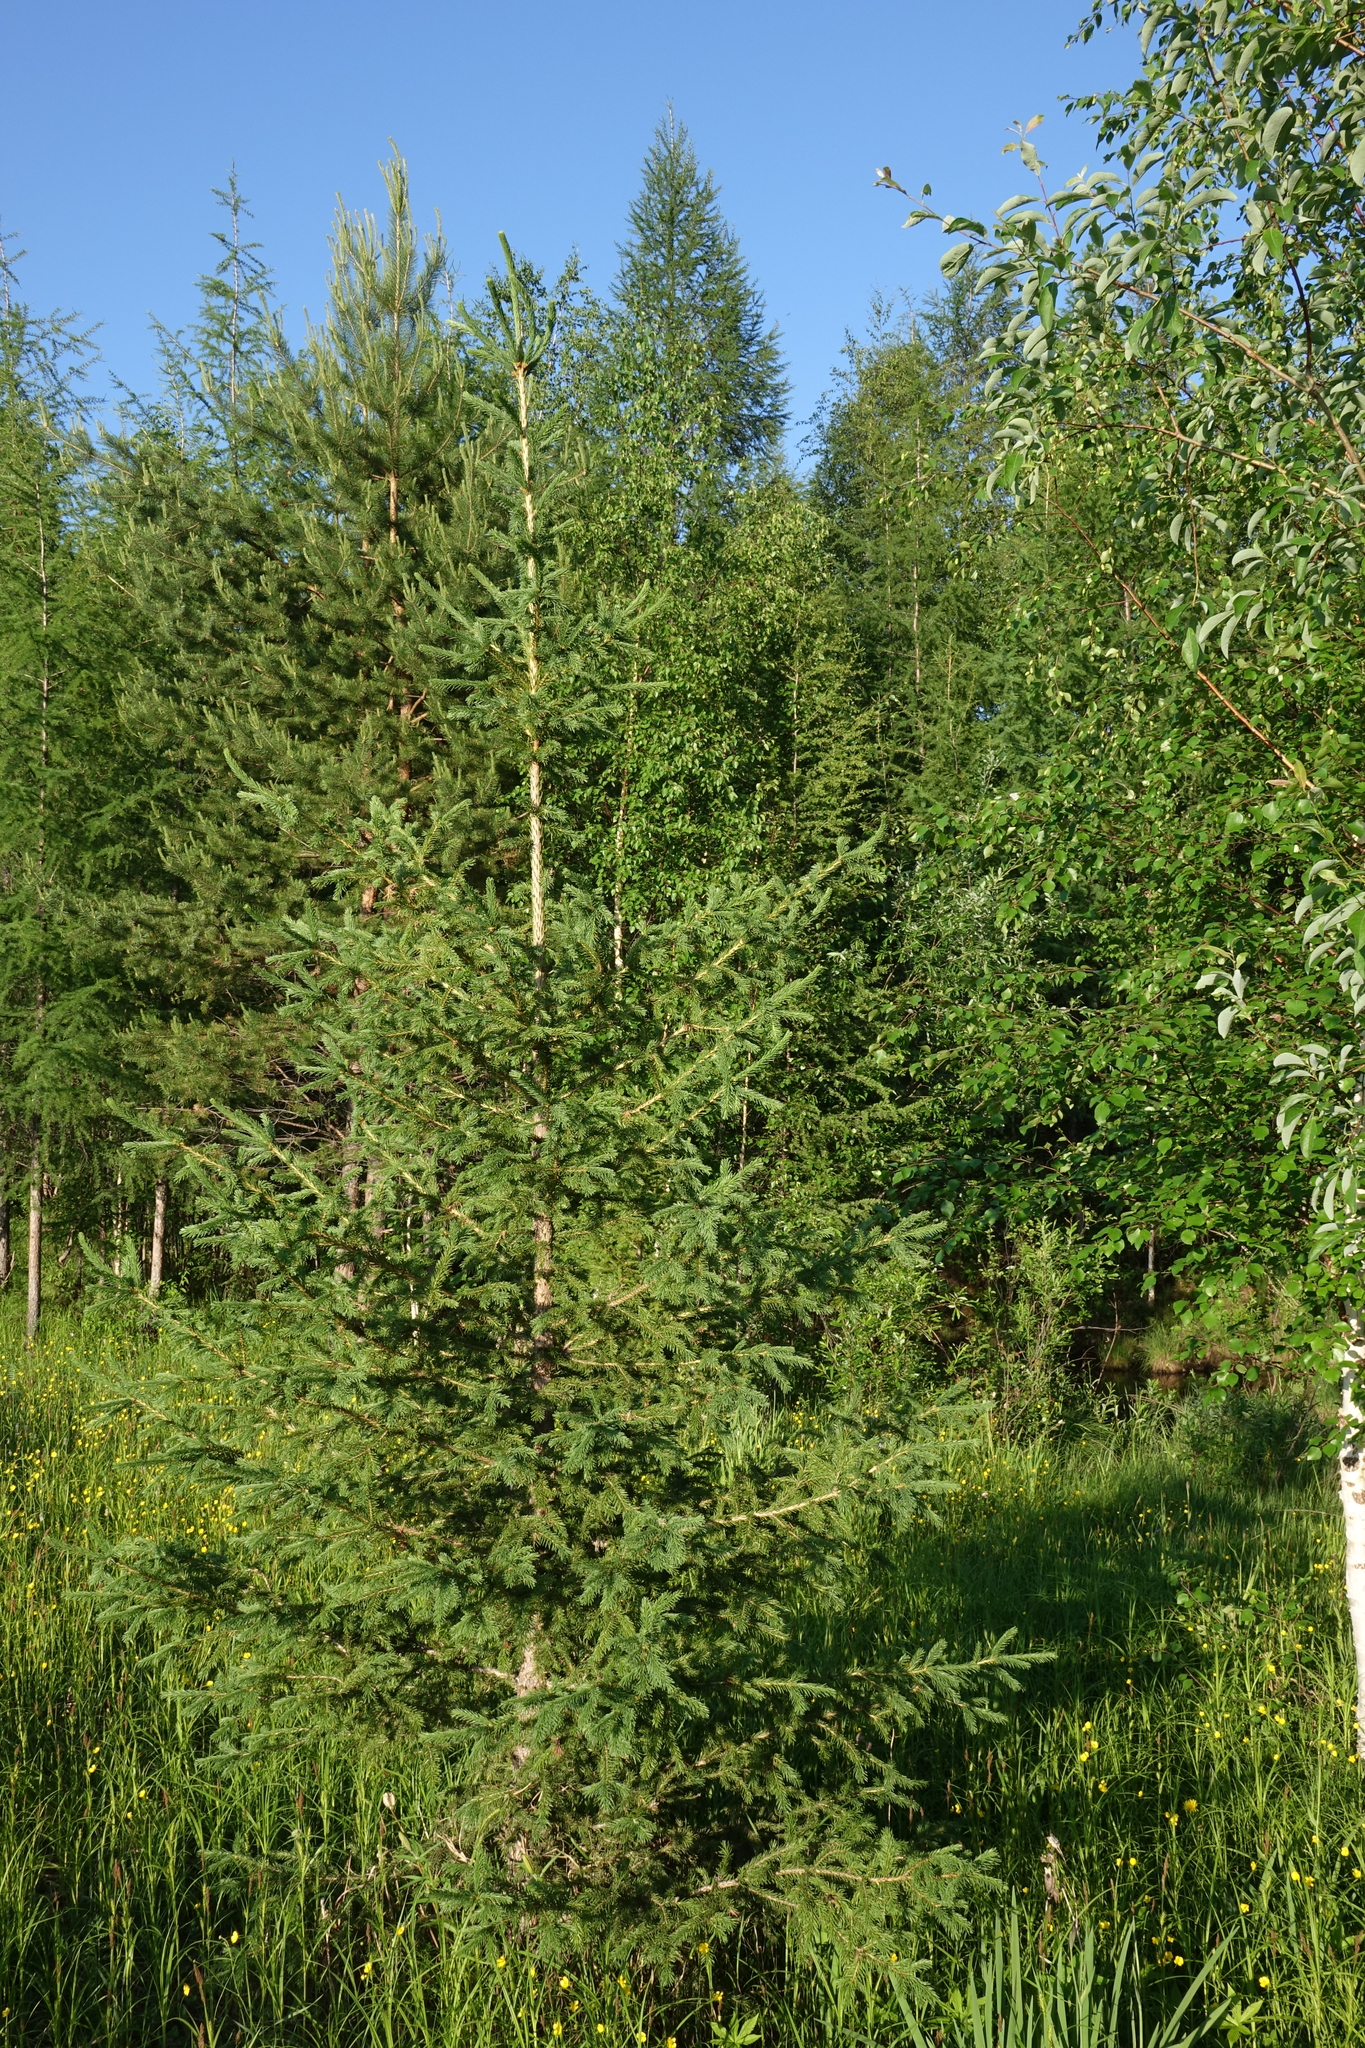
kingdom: Plantae
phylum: Tracheophyta
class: Pinopsida
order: Pinales
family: Pinaceae
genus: Picea
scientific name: Picea obovata
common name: Siberian spruce
